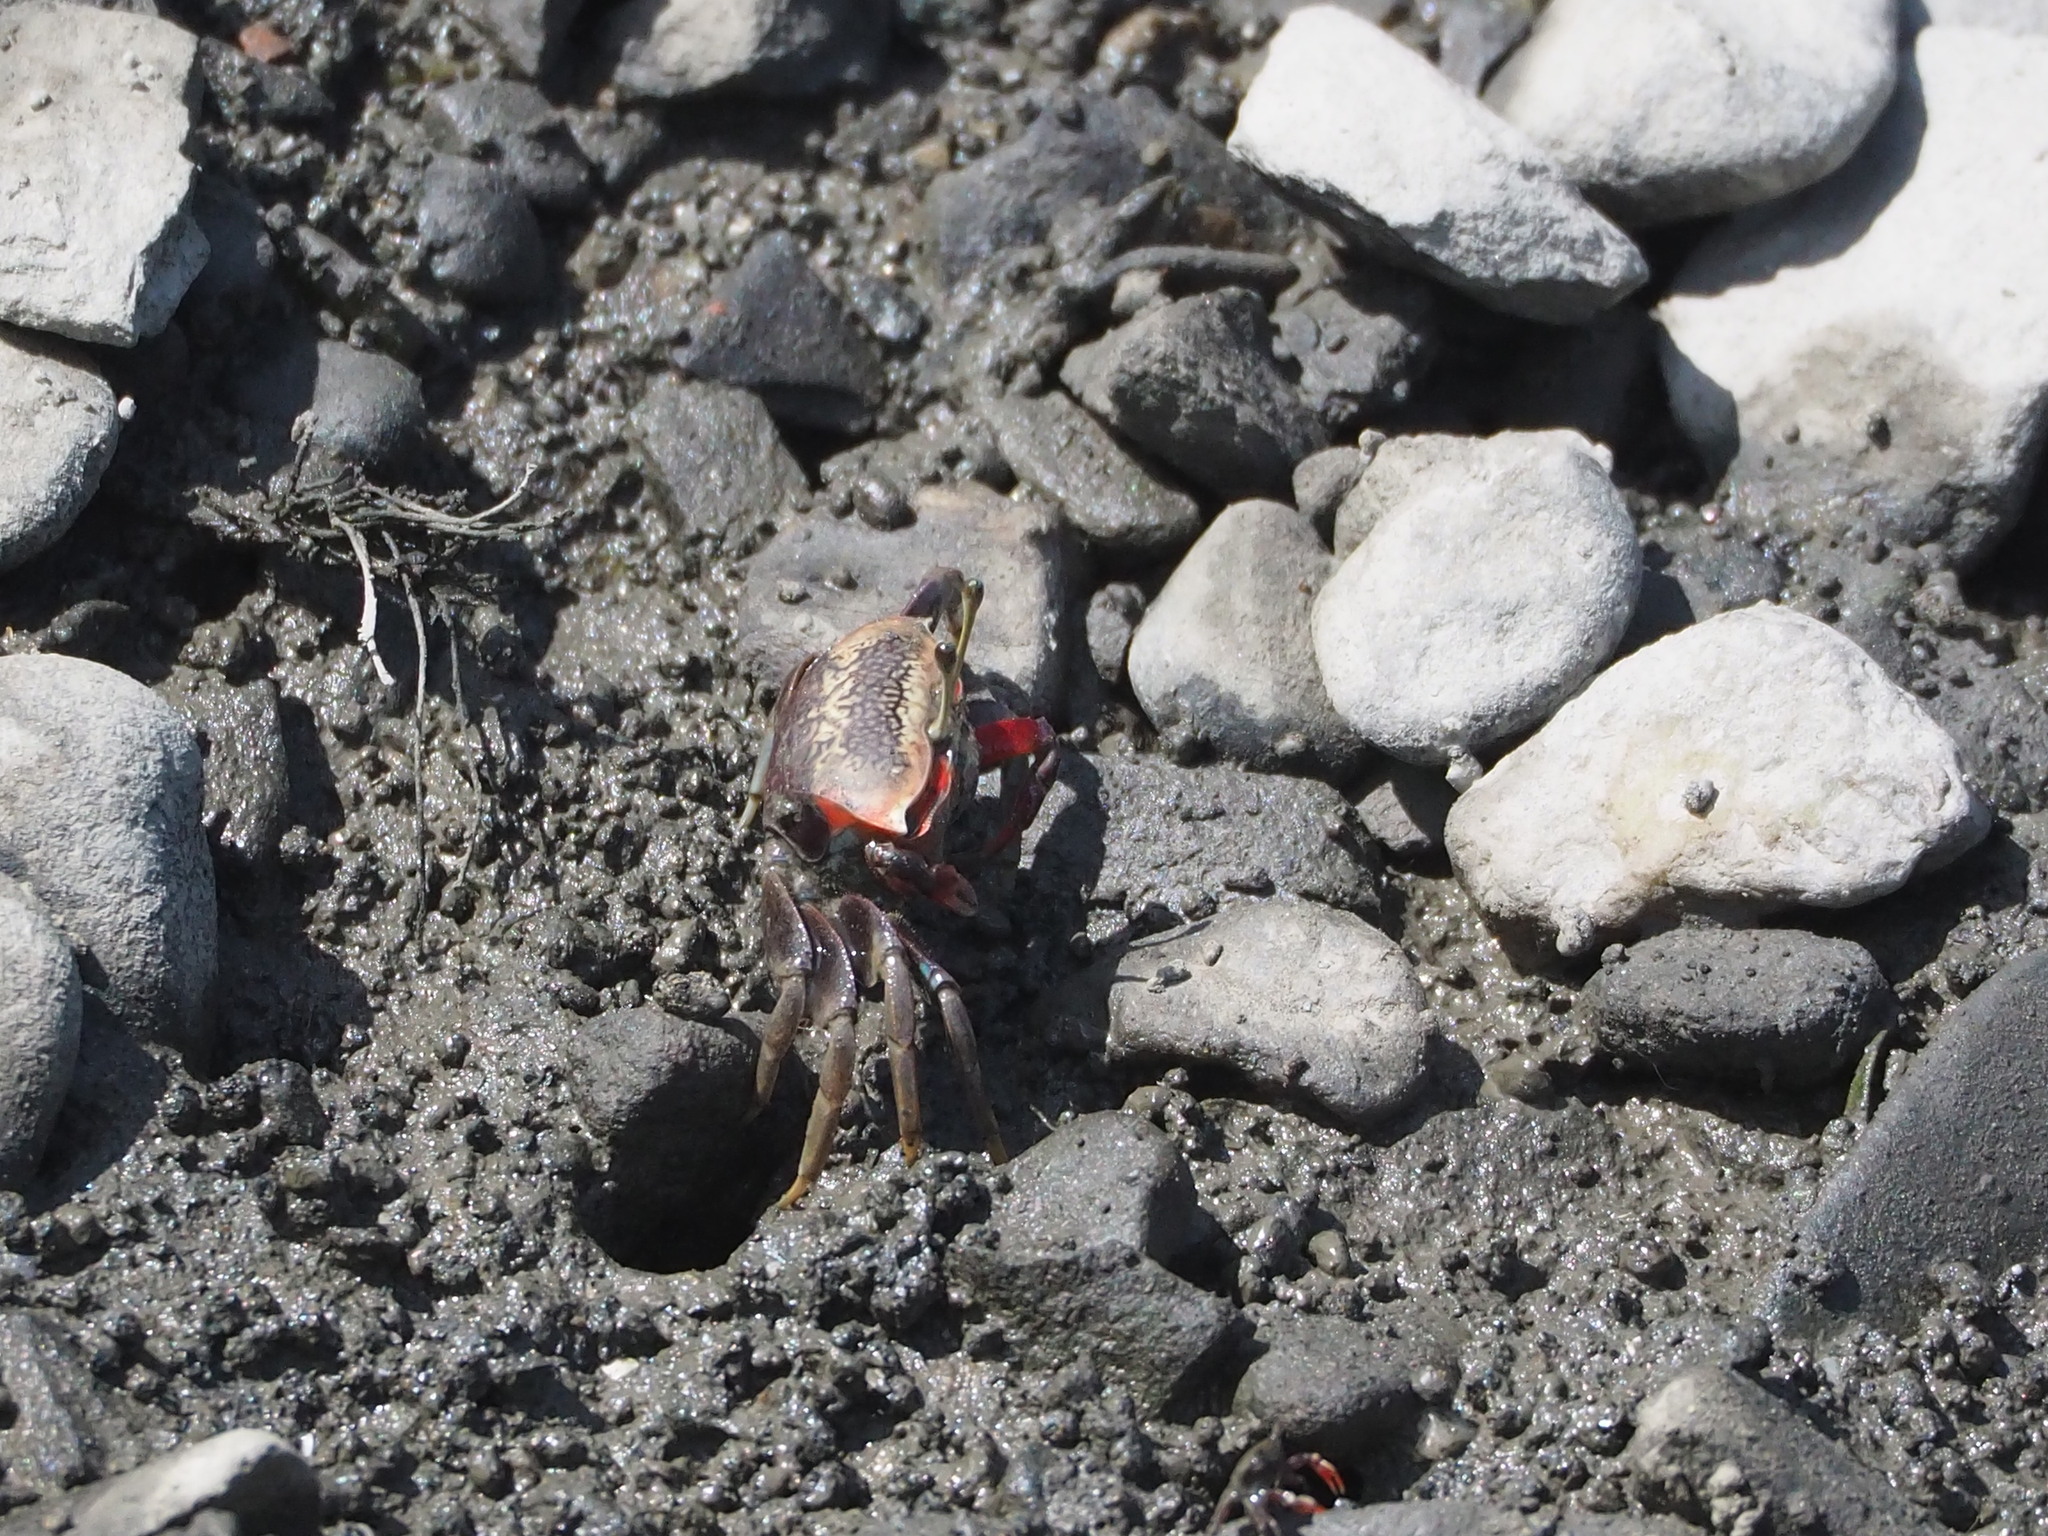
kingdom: Animalia
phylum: Arthropoda
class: Malacostraca
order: Decapoda
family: Ocypodidae
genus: Tubuca
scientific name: Tubuca arcuata
